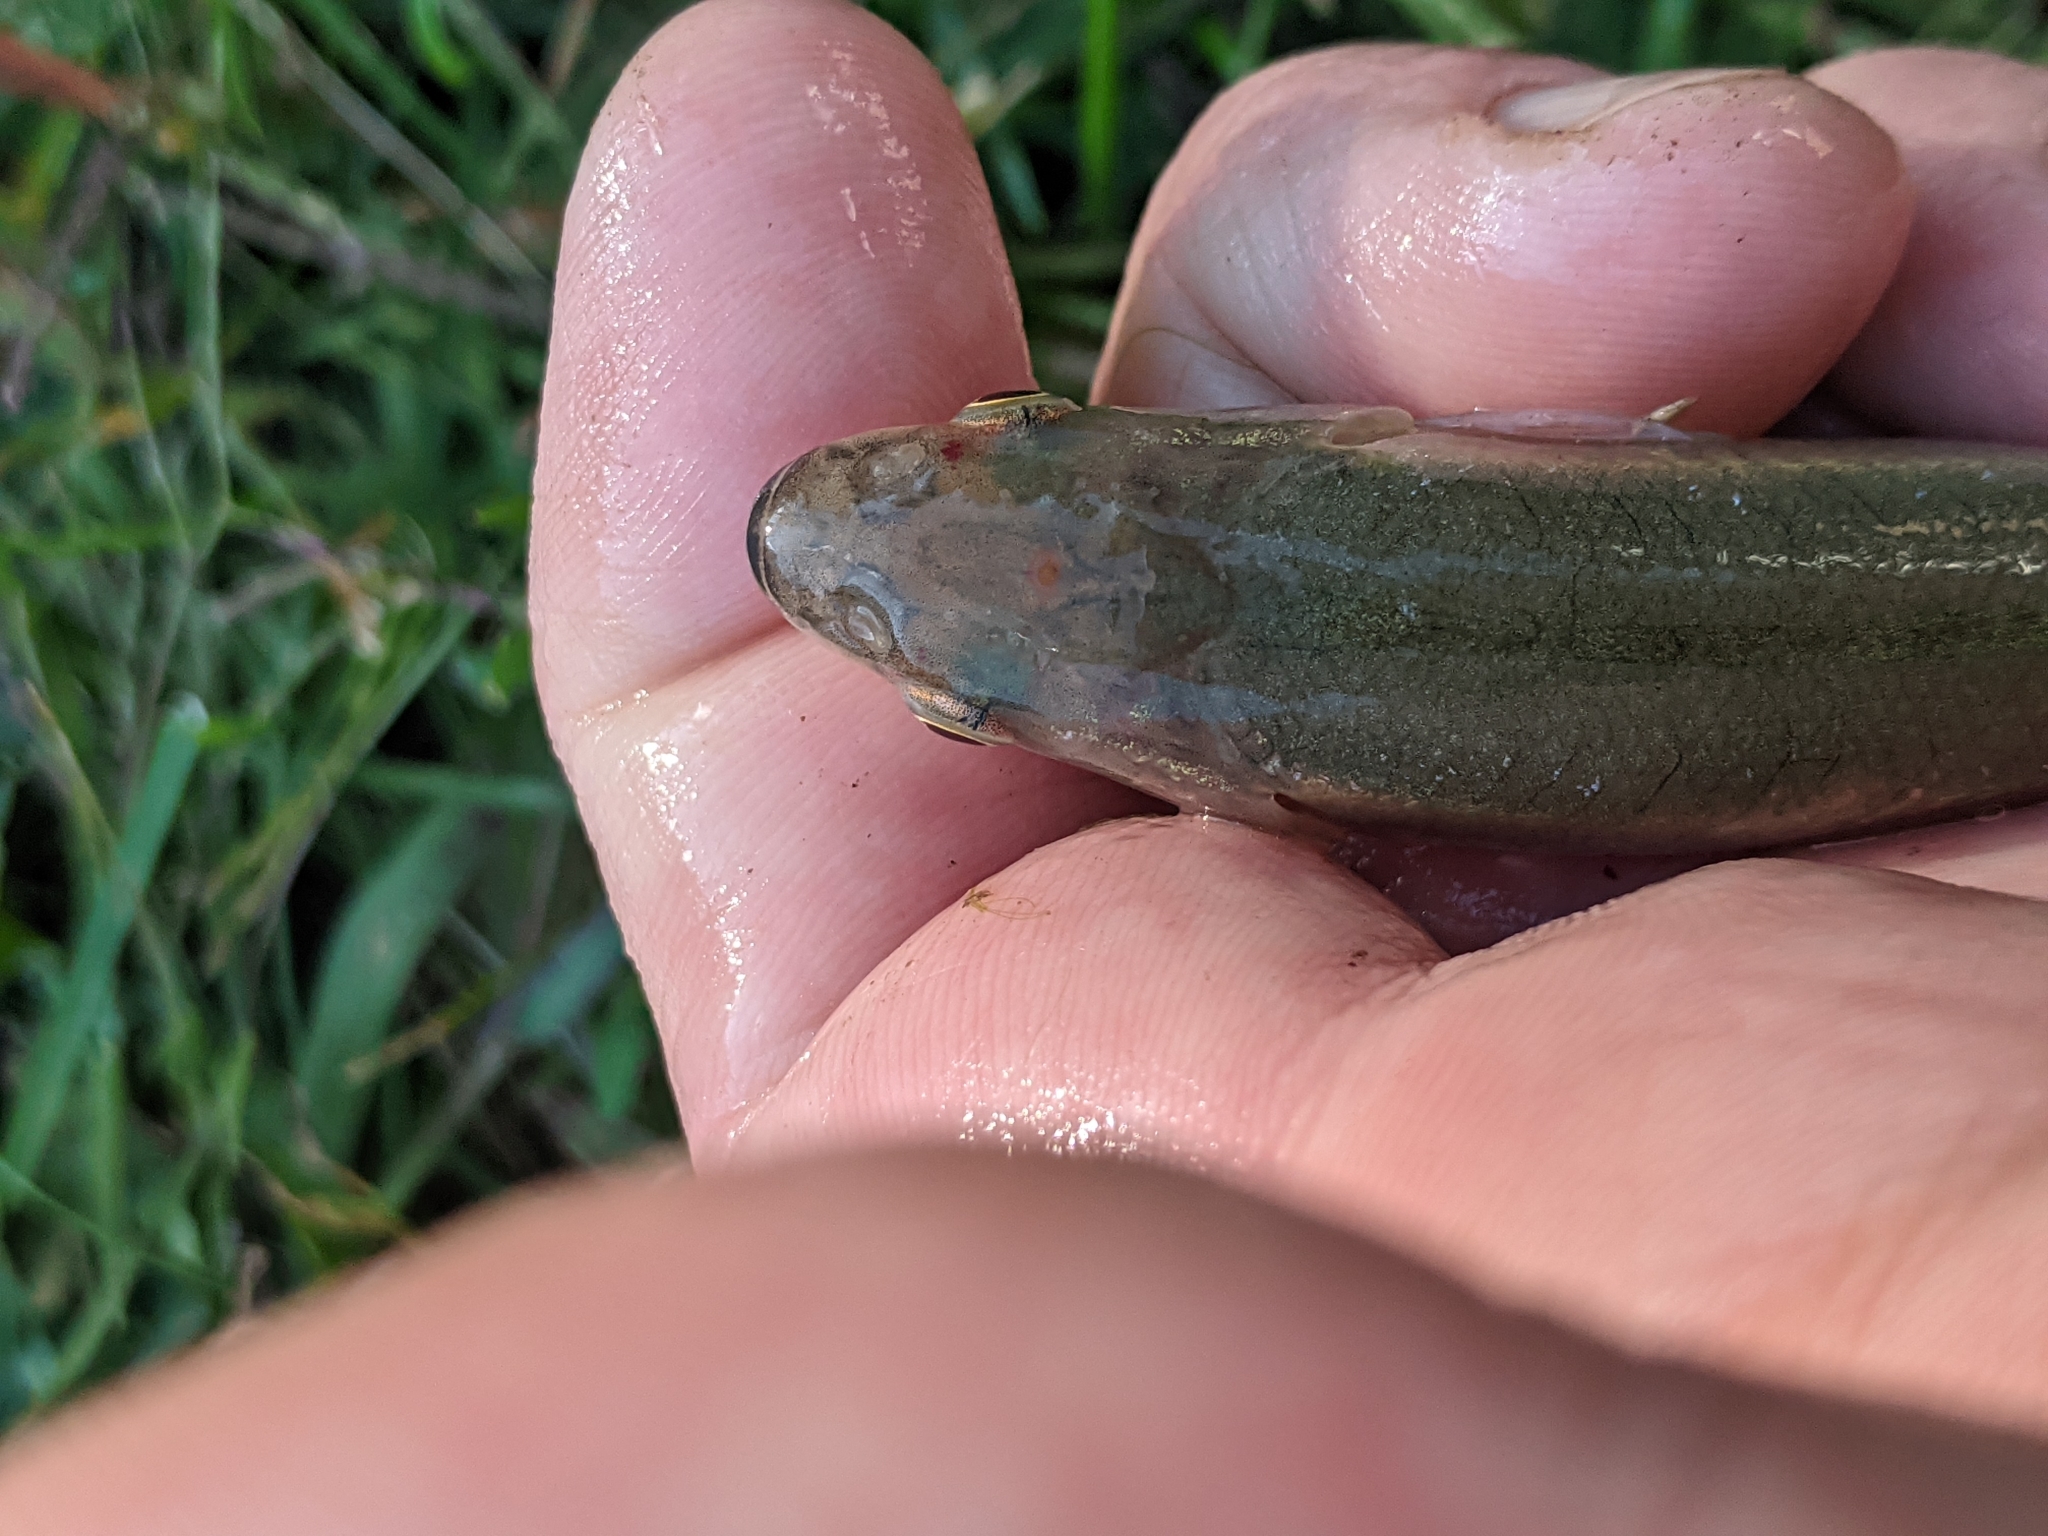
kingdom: Animalia
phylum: Chordata
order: Cypriniformes
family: Cyprinidae
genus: Semotilus
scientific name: Semotilus atromaculatus
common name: Creek chub
